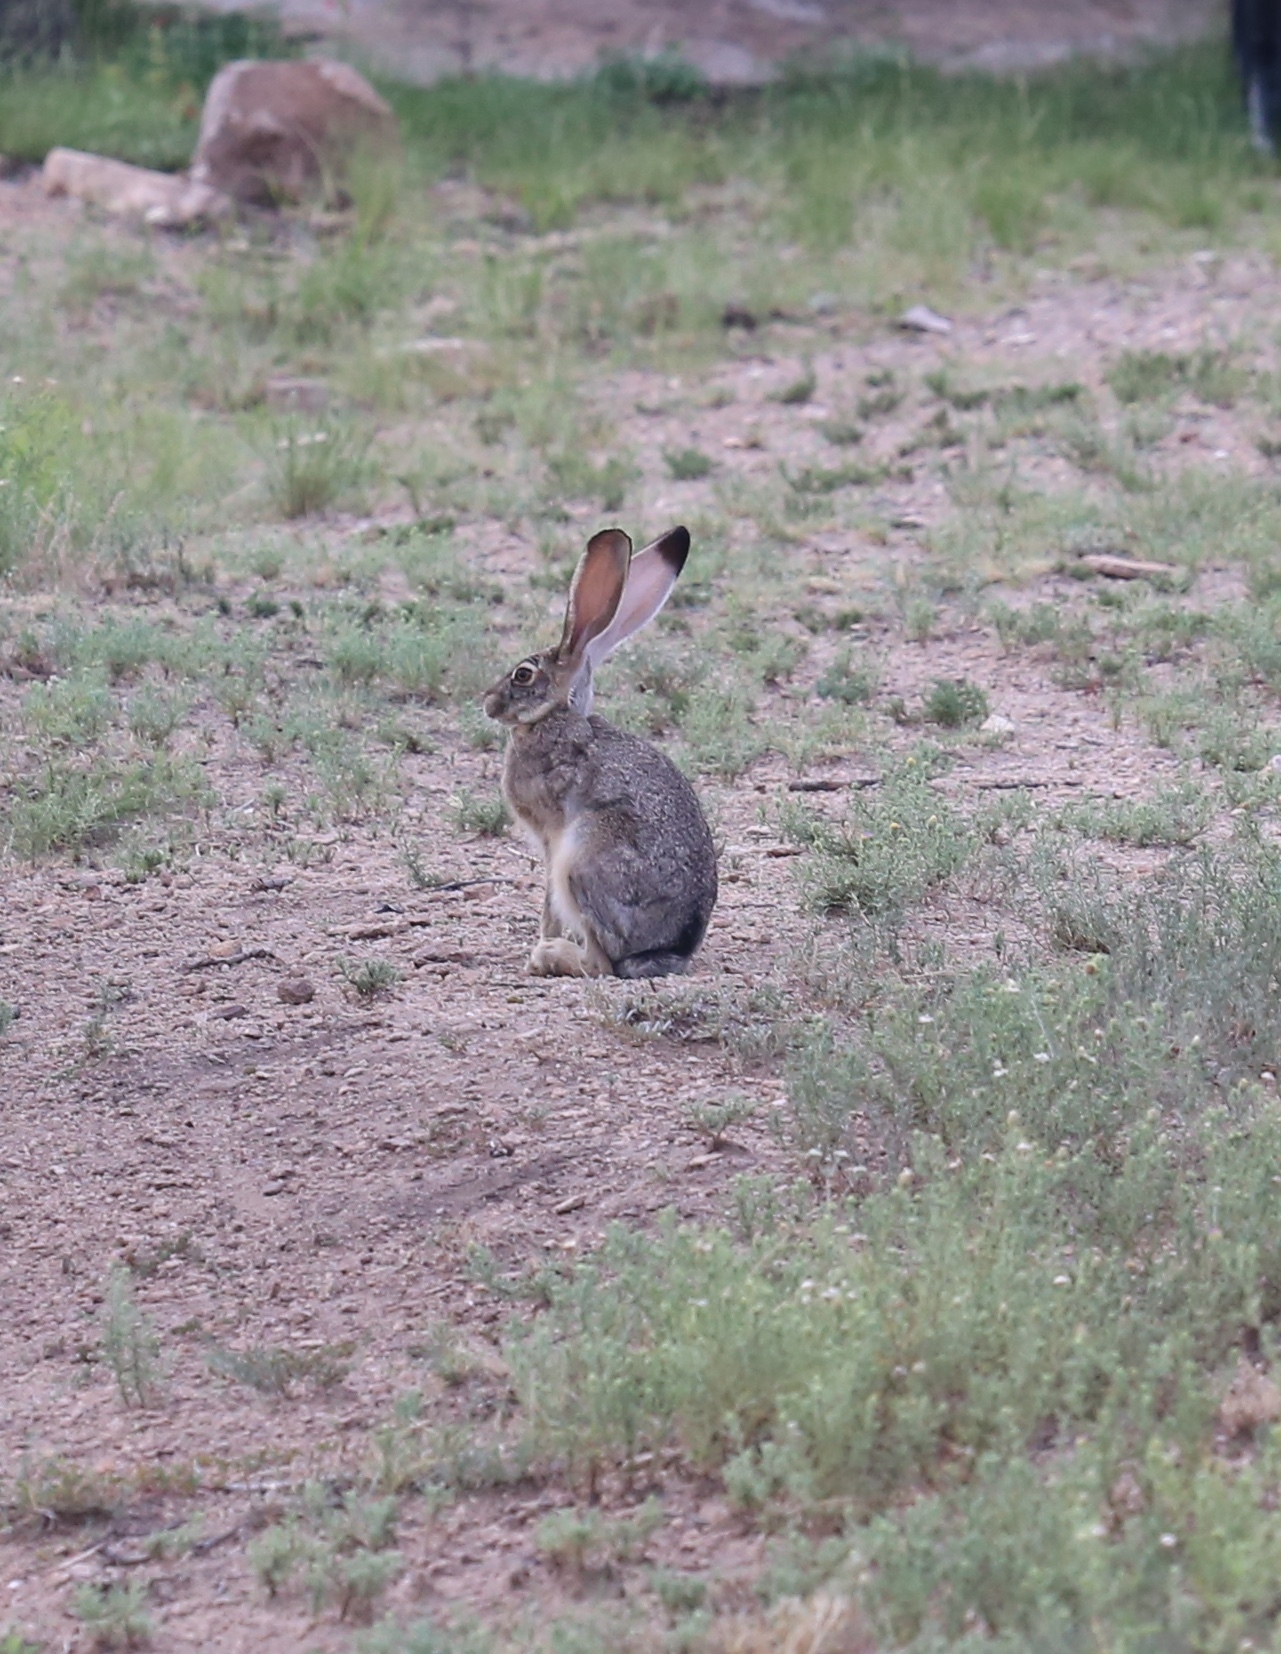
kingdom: Animalia
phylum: Chordata
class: Mammalia
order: Lagomorpha
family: Leporidae
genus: Lepus
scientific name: Lepus californicus
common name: Black-tailed jackrabbit
